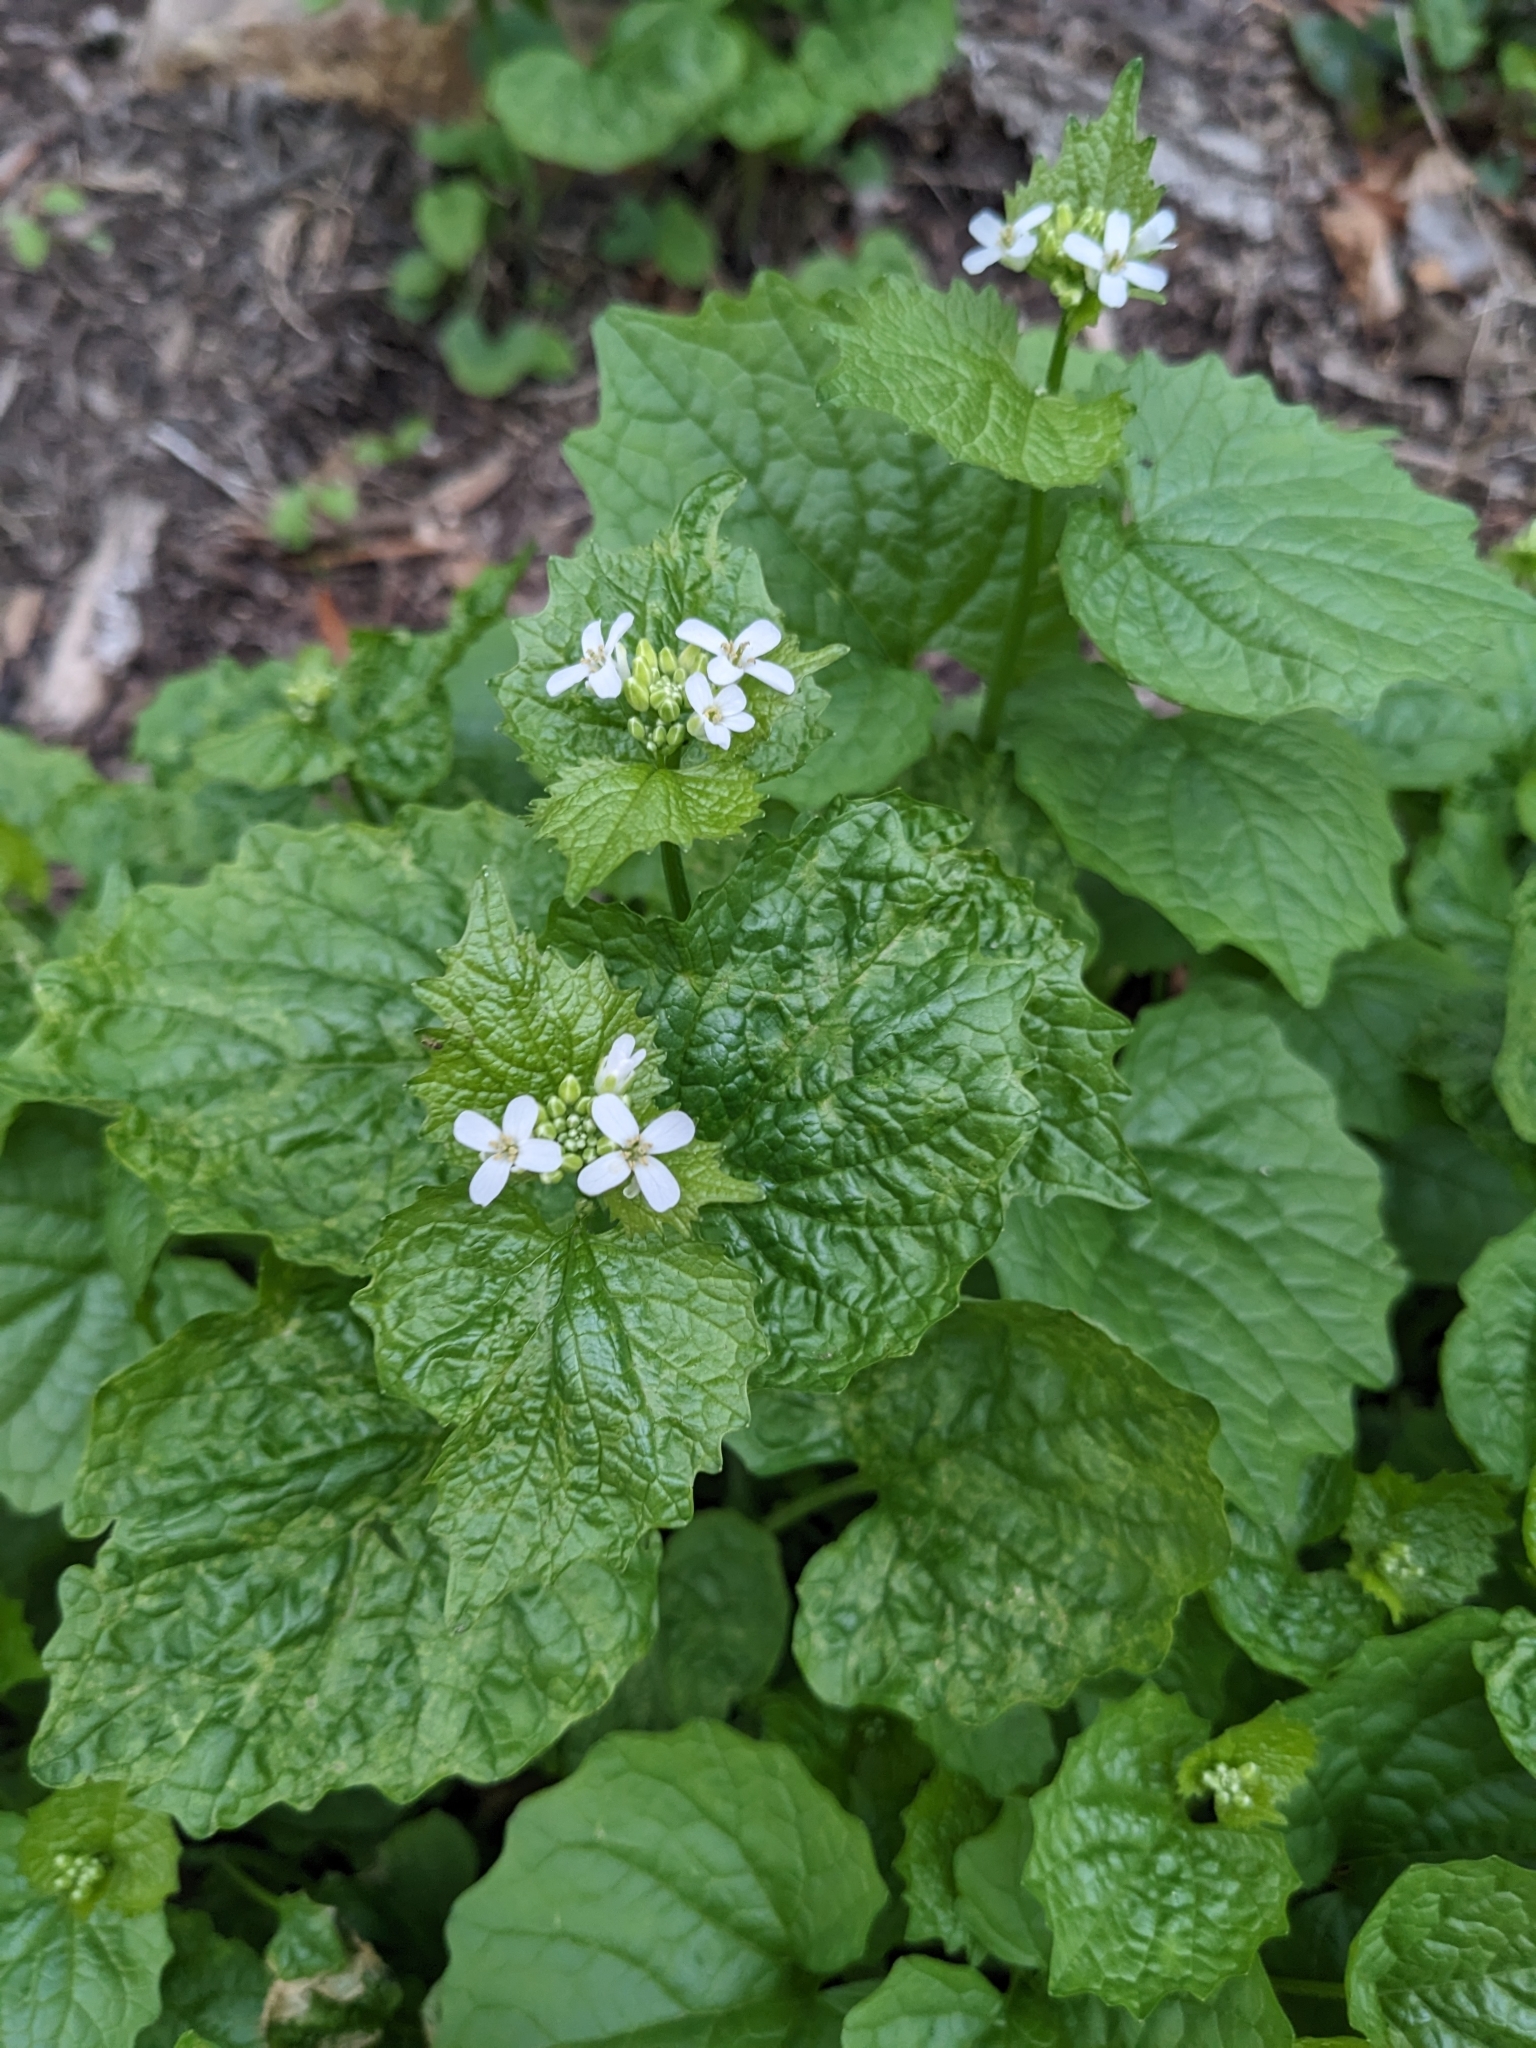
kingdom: Plantae
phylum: Tracheophyta
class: Magnoliopsida
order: Brassicales
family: Brassicaceae
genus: Alliaria
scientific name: Alliaria petiolata
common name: Garlic mustard
